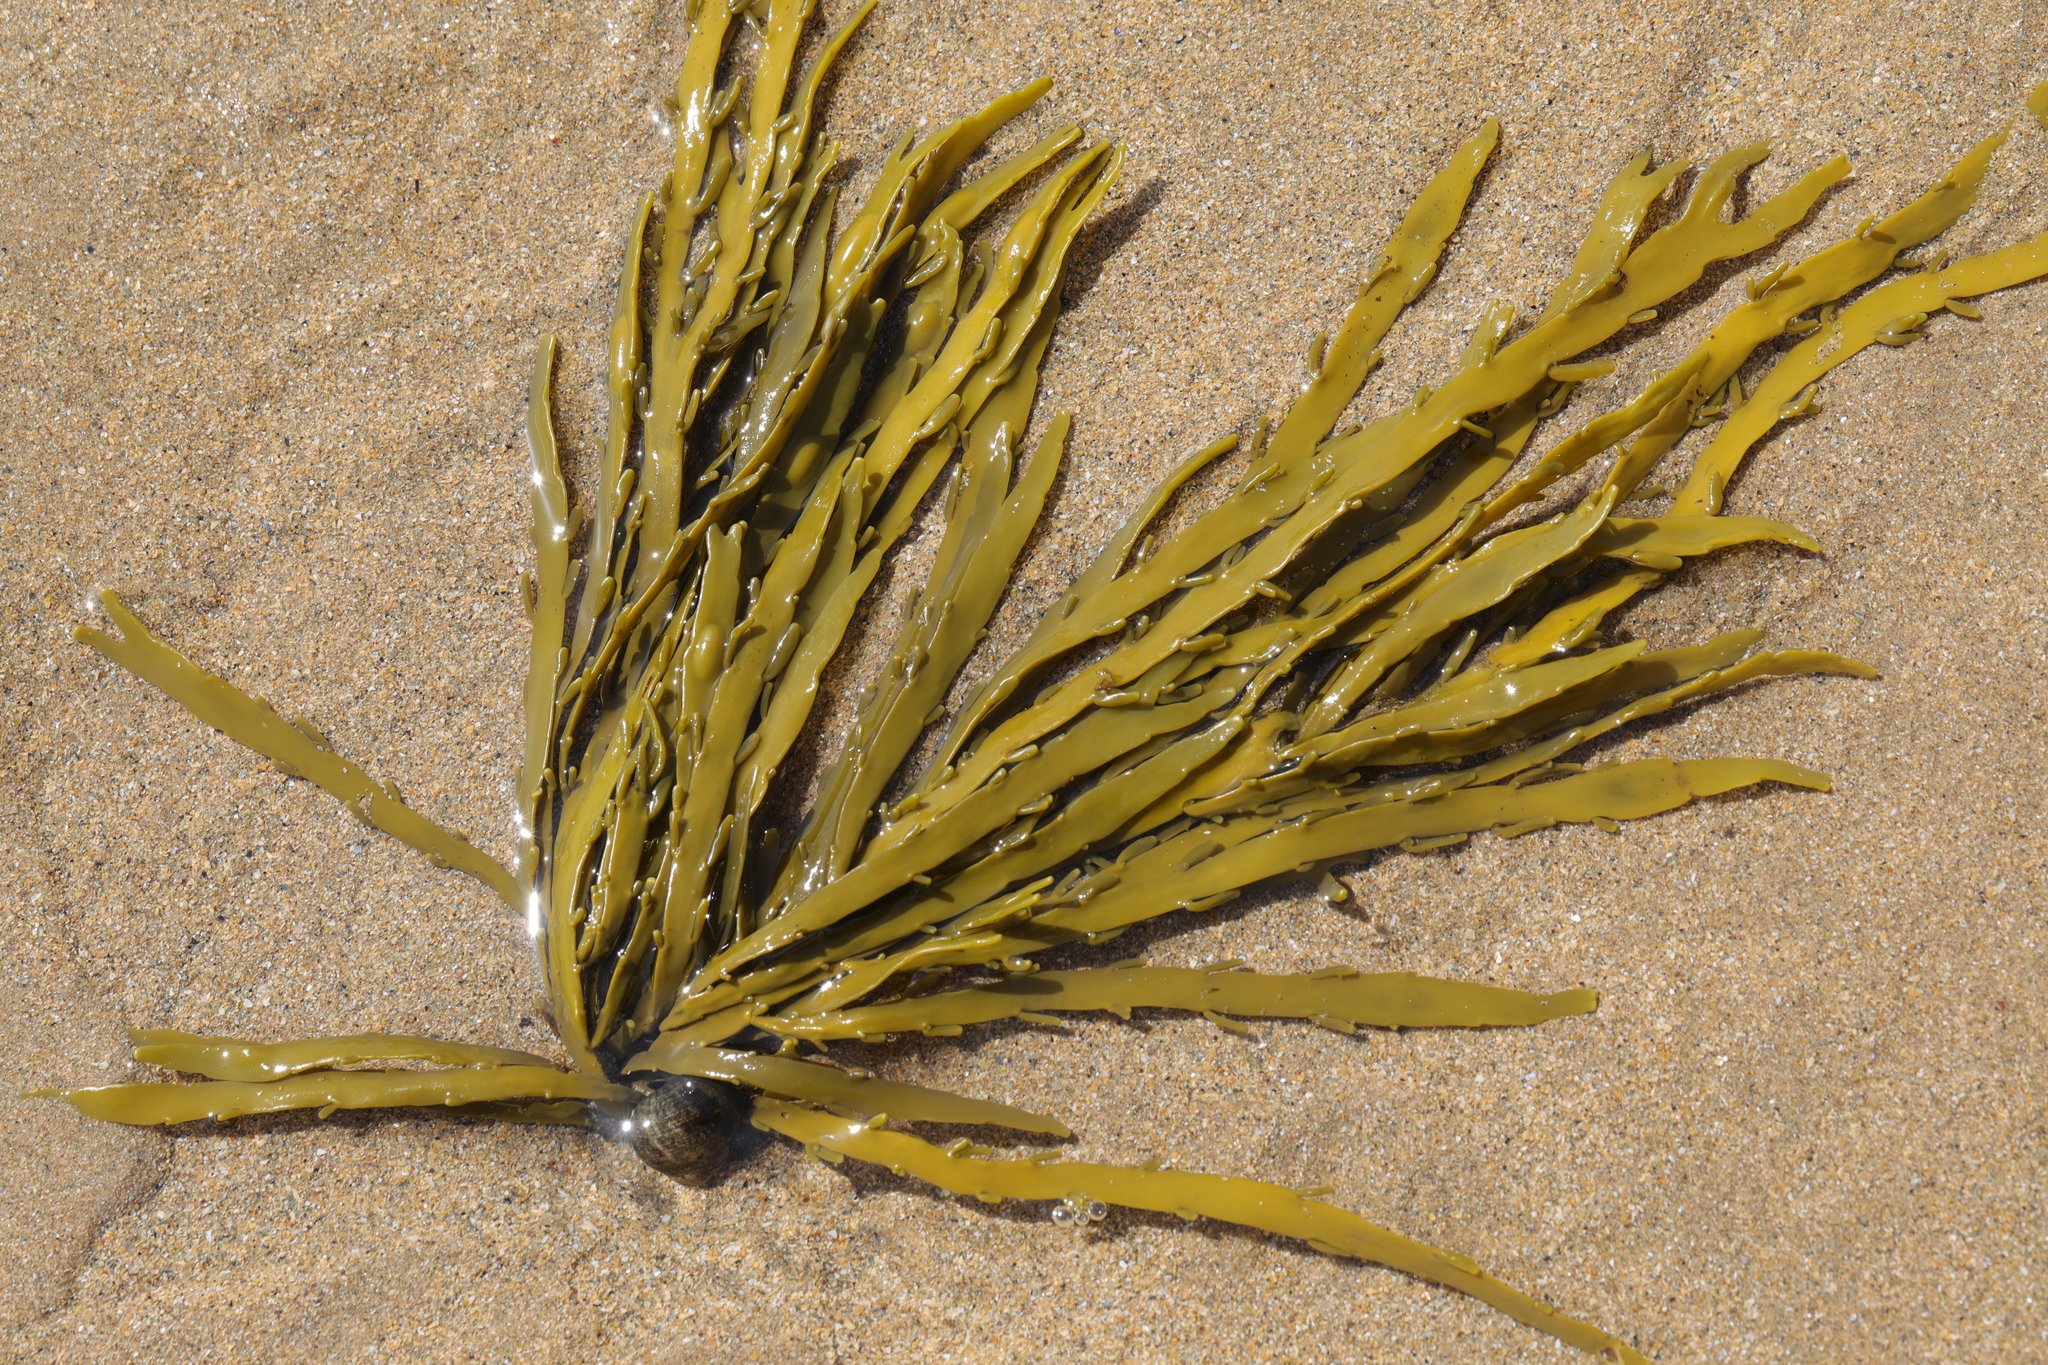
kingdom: Chromista
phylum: Ochrophyta
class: Phaeophyceae
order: Fucales
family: Fucaceae
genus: Ascophyllum
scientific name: Ascophyllum nodosum
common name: Knotted wrack
